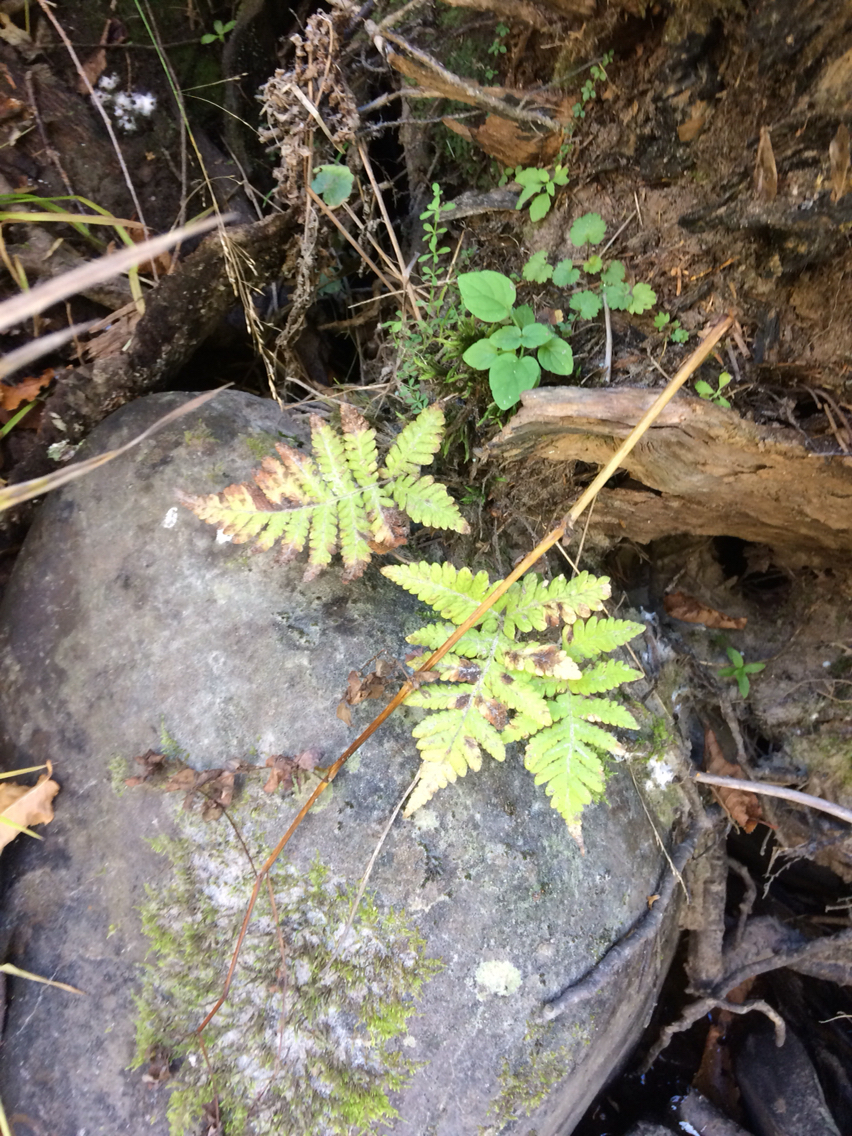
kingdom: Plantae
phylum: Tracheophyta
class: Polypodiopsida
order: Polypodiales
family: Thelypteridaceae
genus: Phegopteris
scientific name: Phegopteris connectilis
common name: Beech fern
